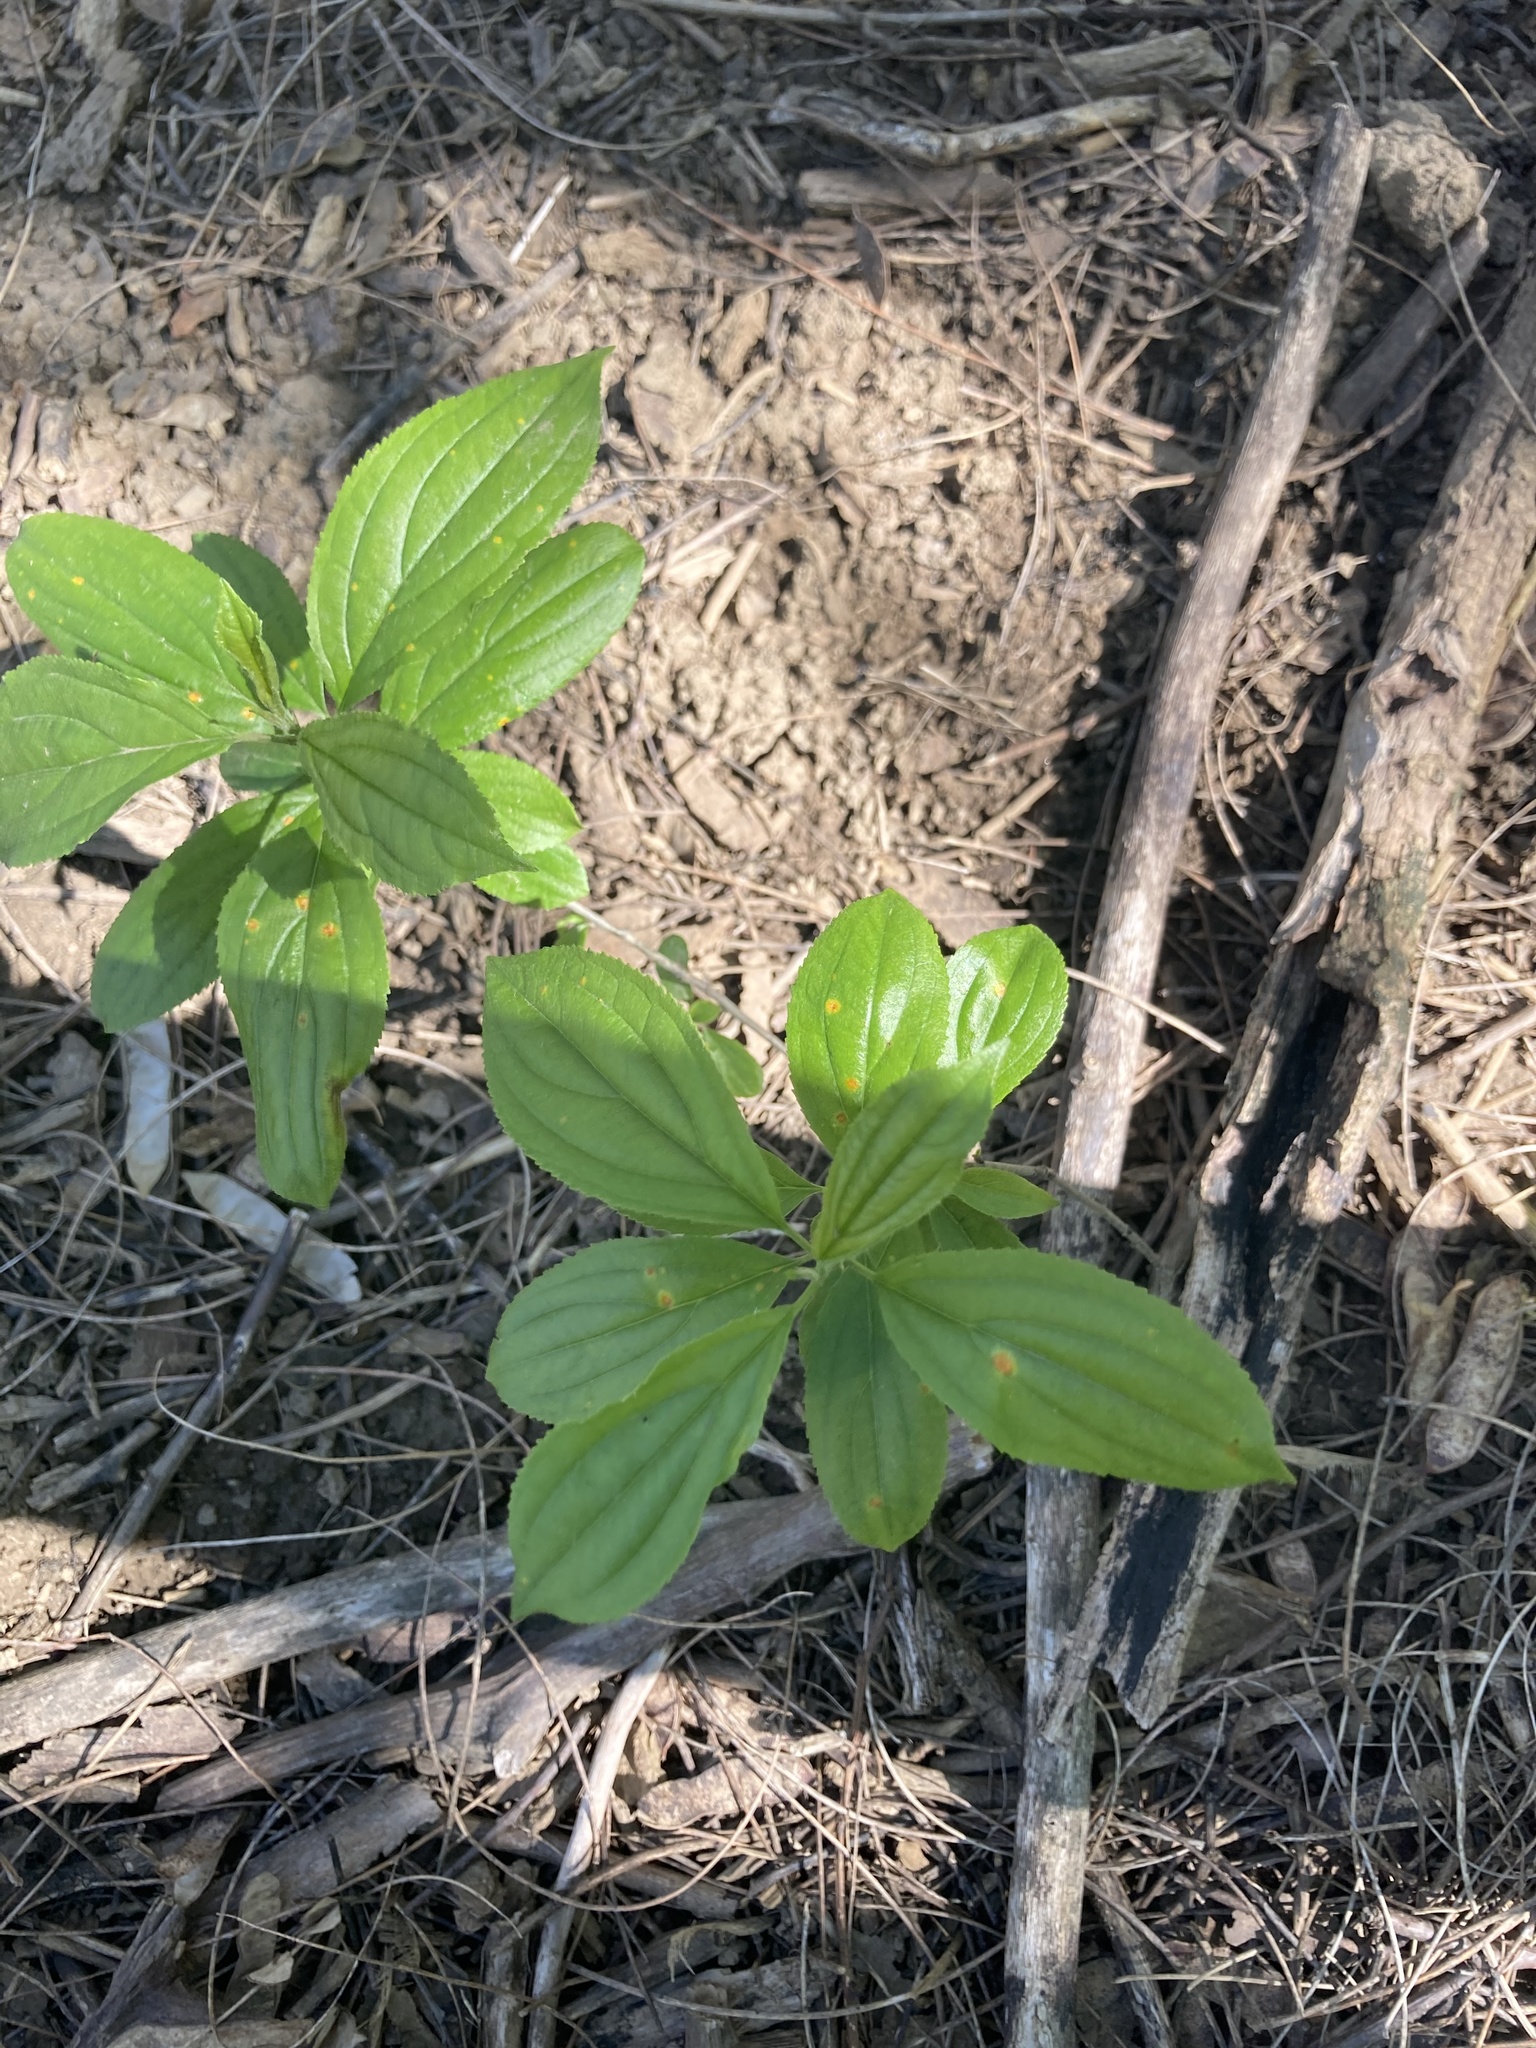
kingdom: Plantae
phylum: Tracheophyta
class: Magnoliopsida
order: Rosales
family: Rhamnaceae
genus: Rhamnus
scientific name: Rhamnus cathartica
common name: Common buckthorn
